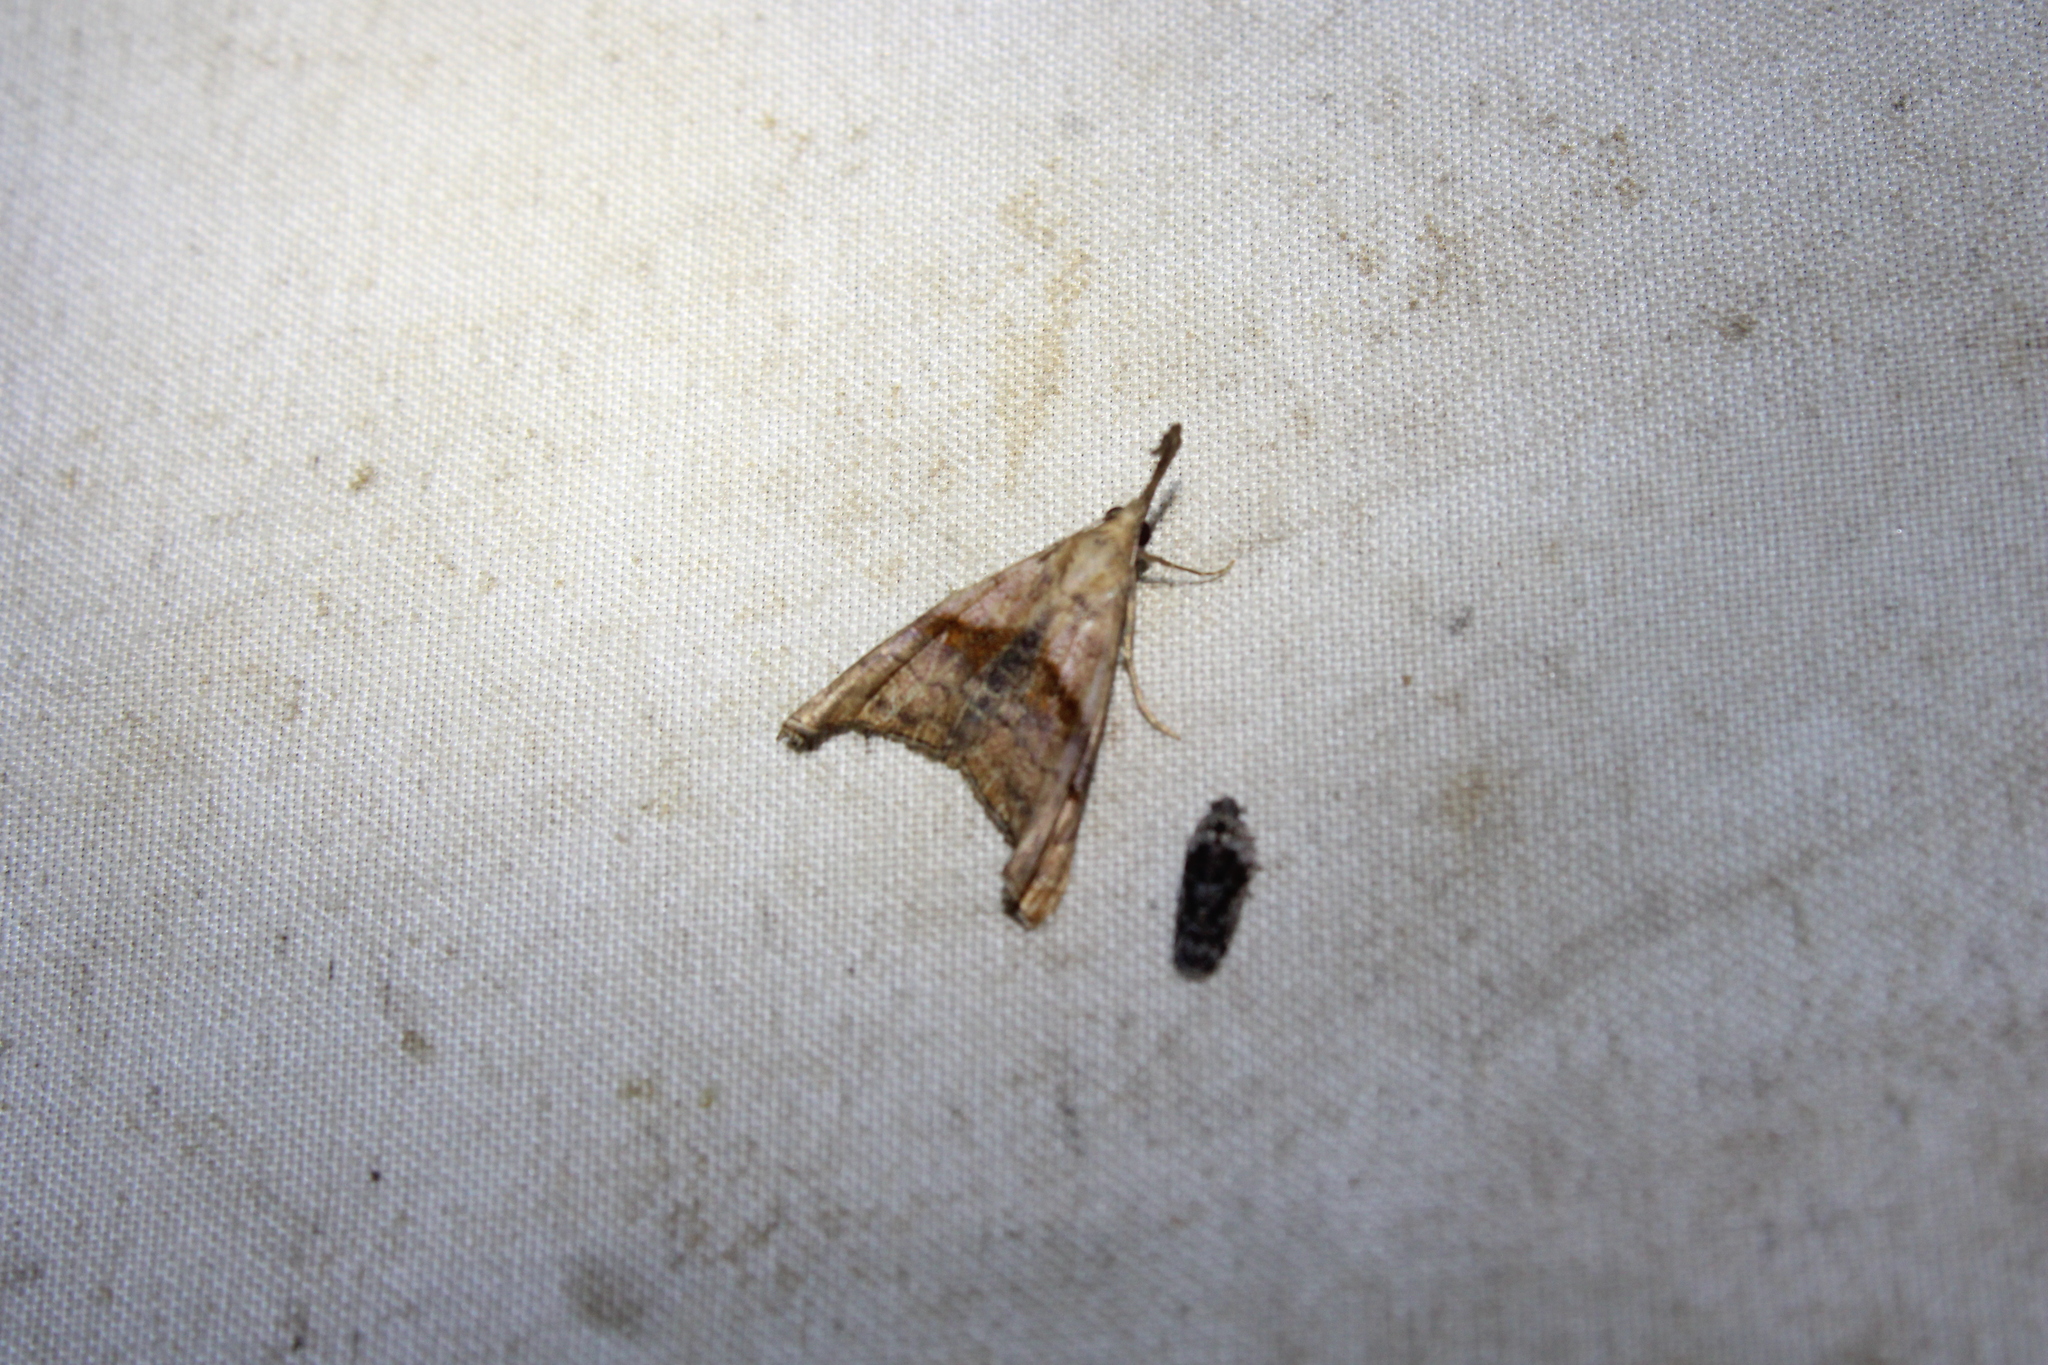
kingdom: Animalia
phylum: Arthropoda
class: Insecta
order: Lepidoptera
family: Erebidae
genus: Palthis
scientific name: Palthis angulalis
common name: Dark-spotted palthis moth
